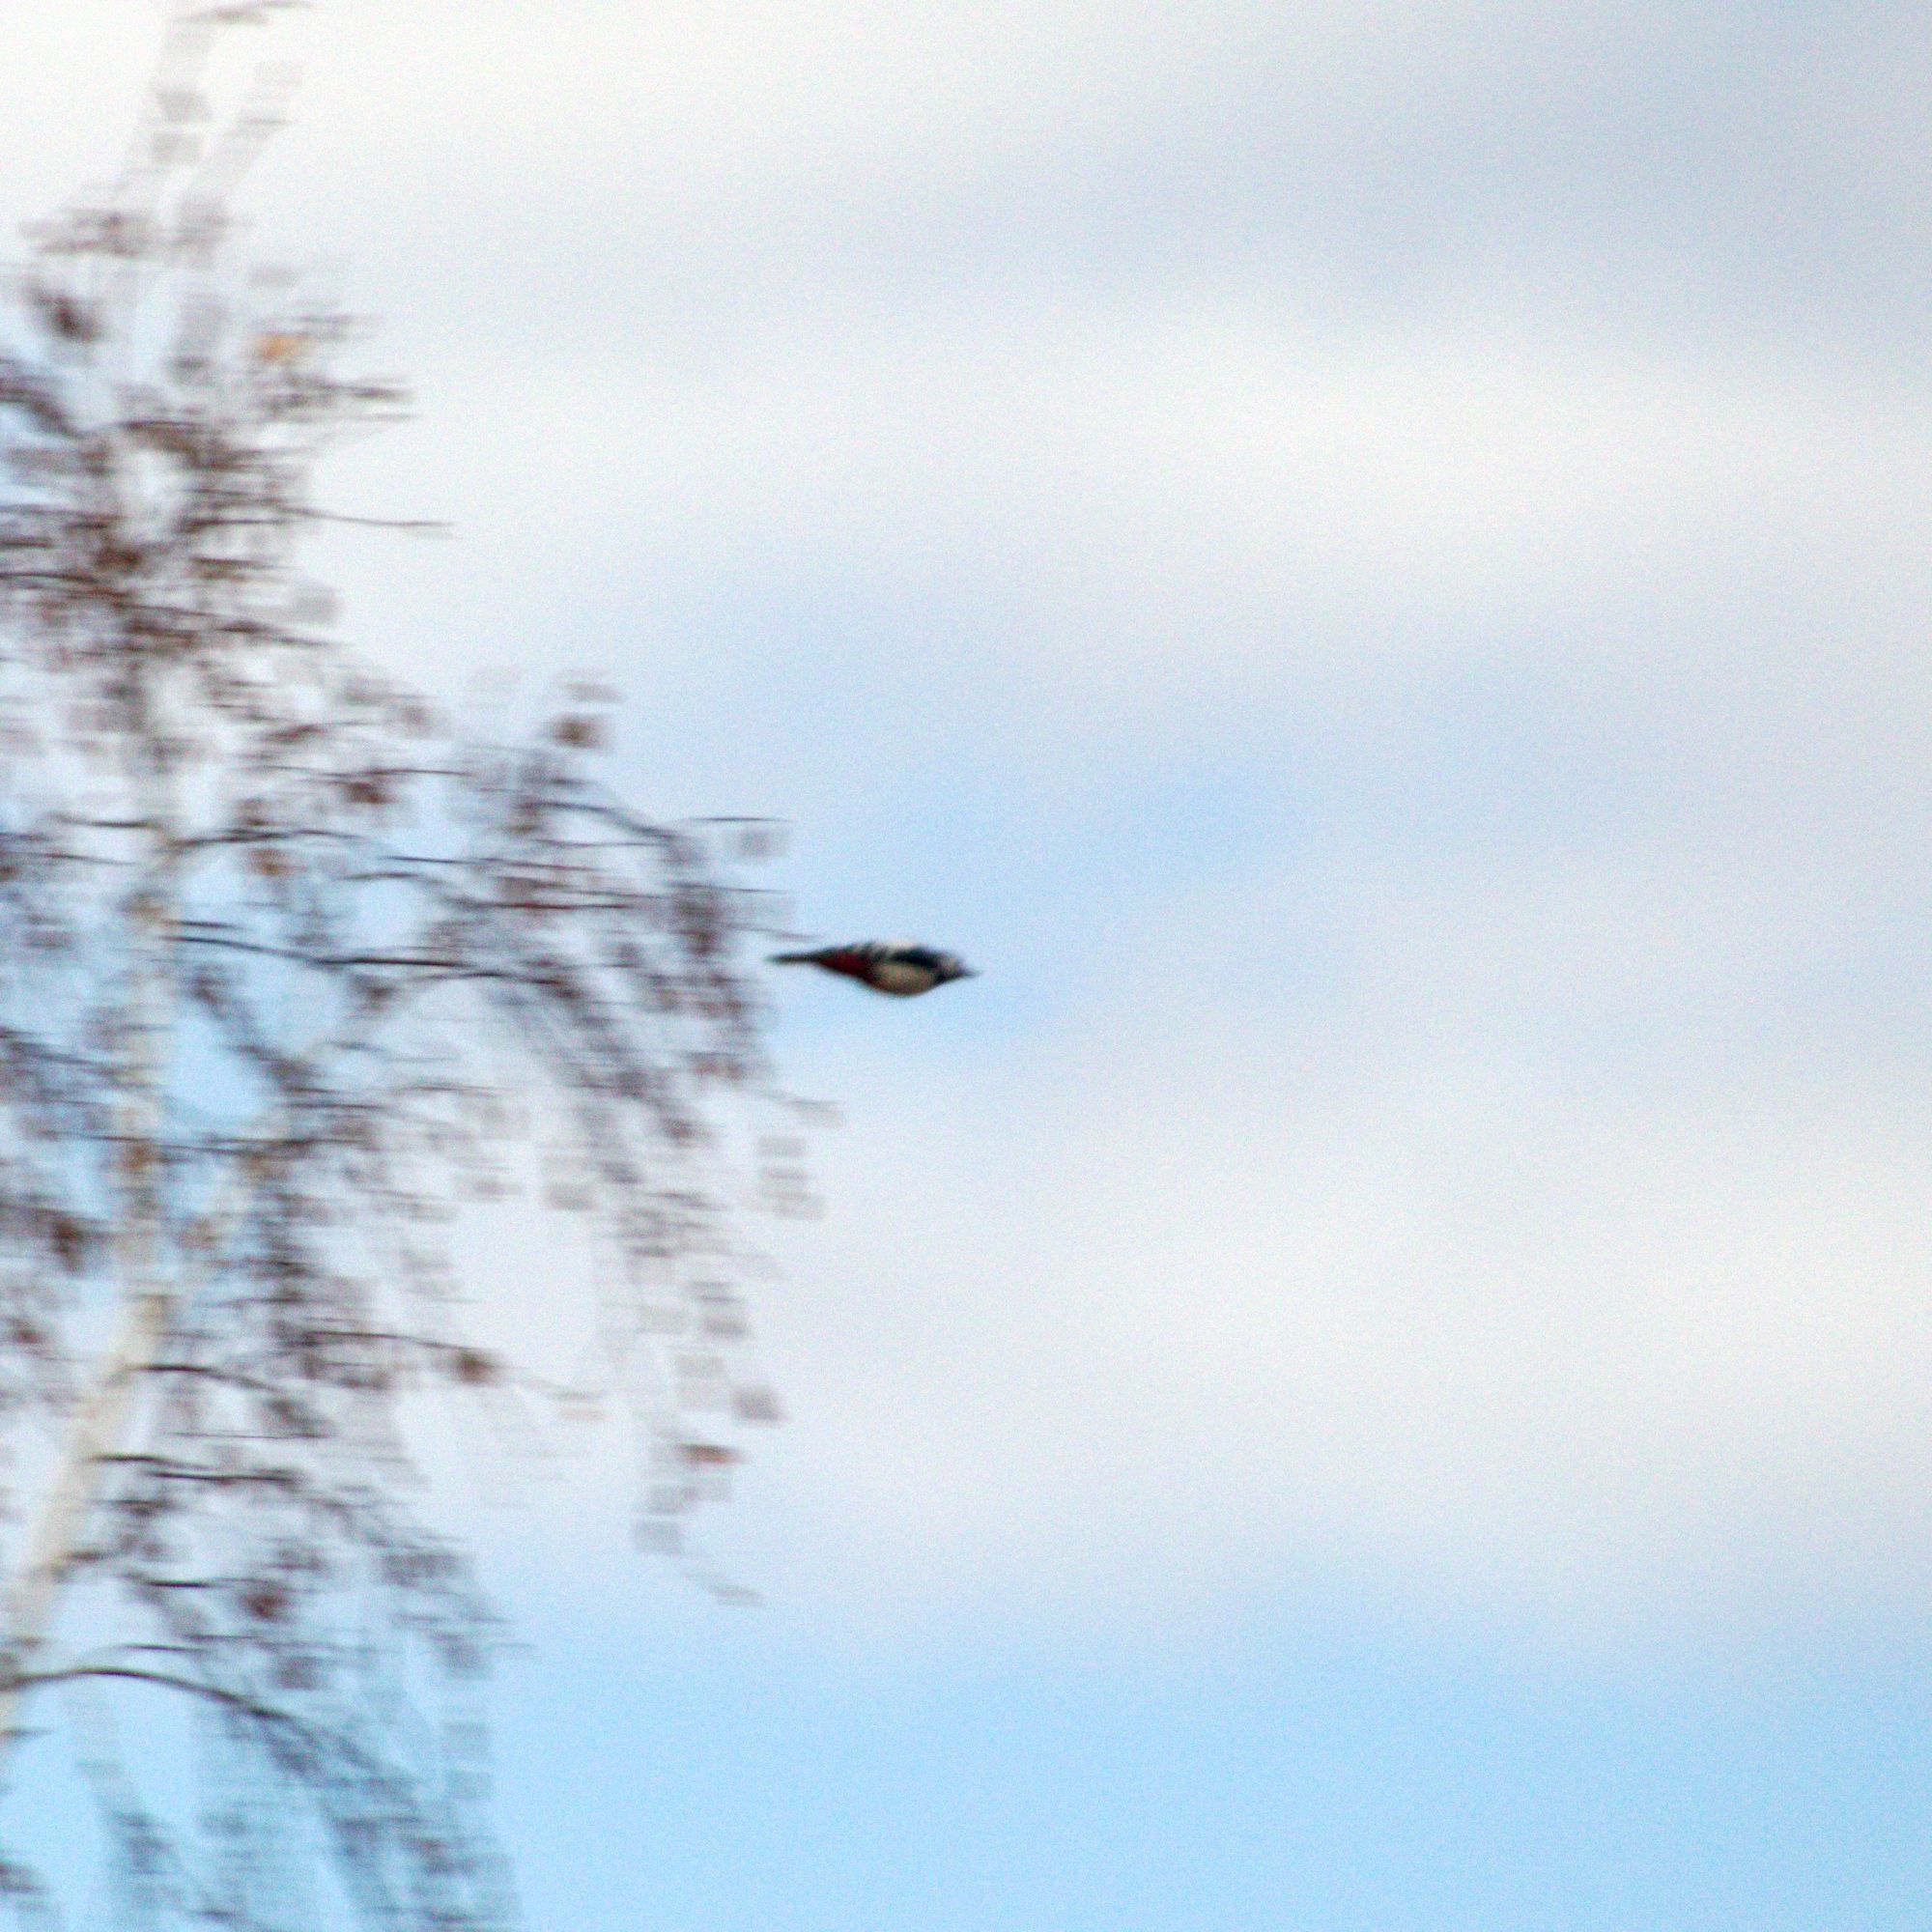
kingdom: Animalia
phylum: Chordata
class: Aves
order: Piciformes
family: Picidae
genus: Dendrocopos
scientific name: Dendrocopos major
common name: Great spotted woodpecker
